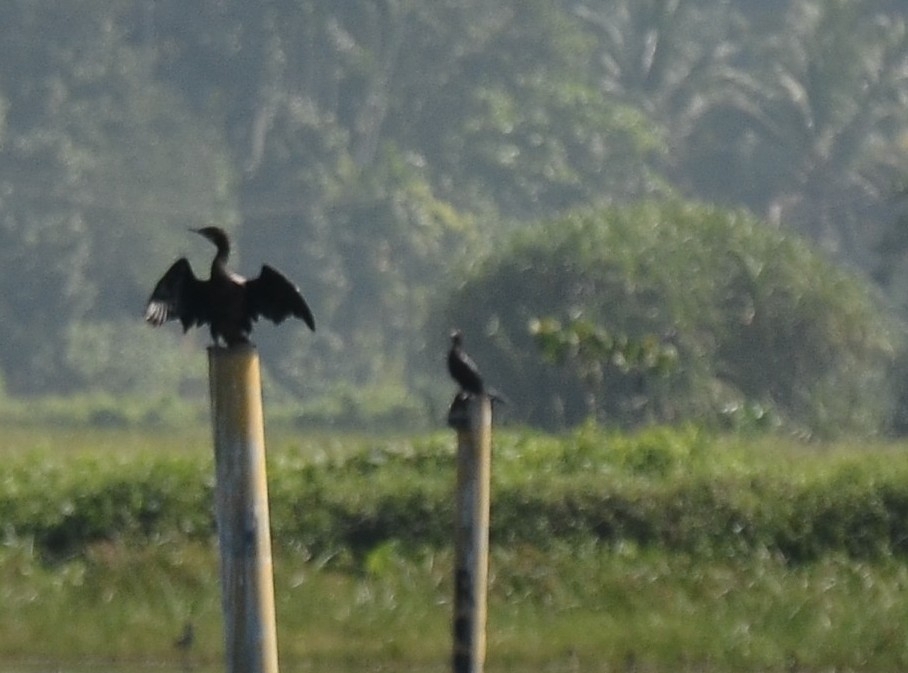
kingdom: Animalia
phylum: Chordata
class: Aves
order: Suliformes
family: Phalacrocoracidae
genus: Microcarbo
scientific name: Microcarbo niger
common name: Little cormorant
